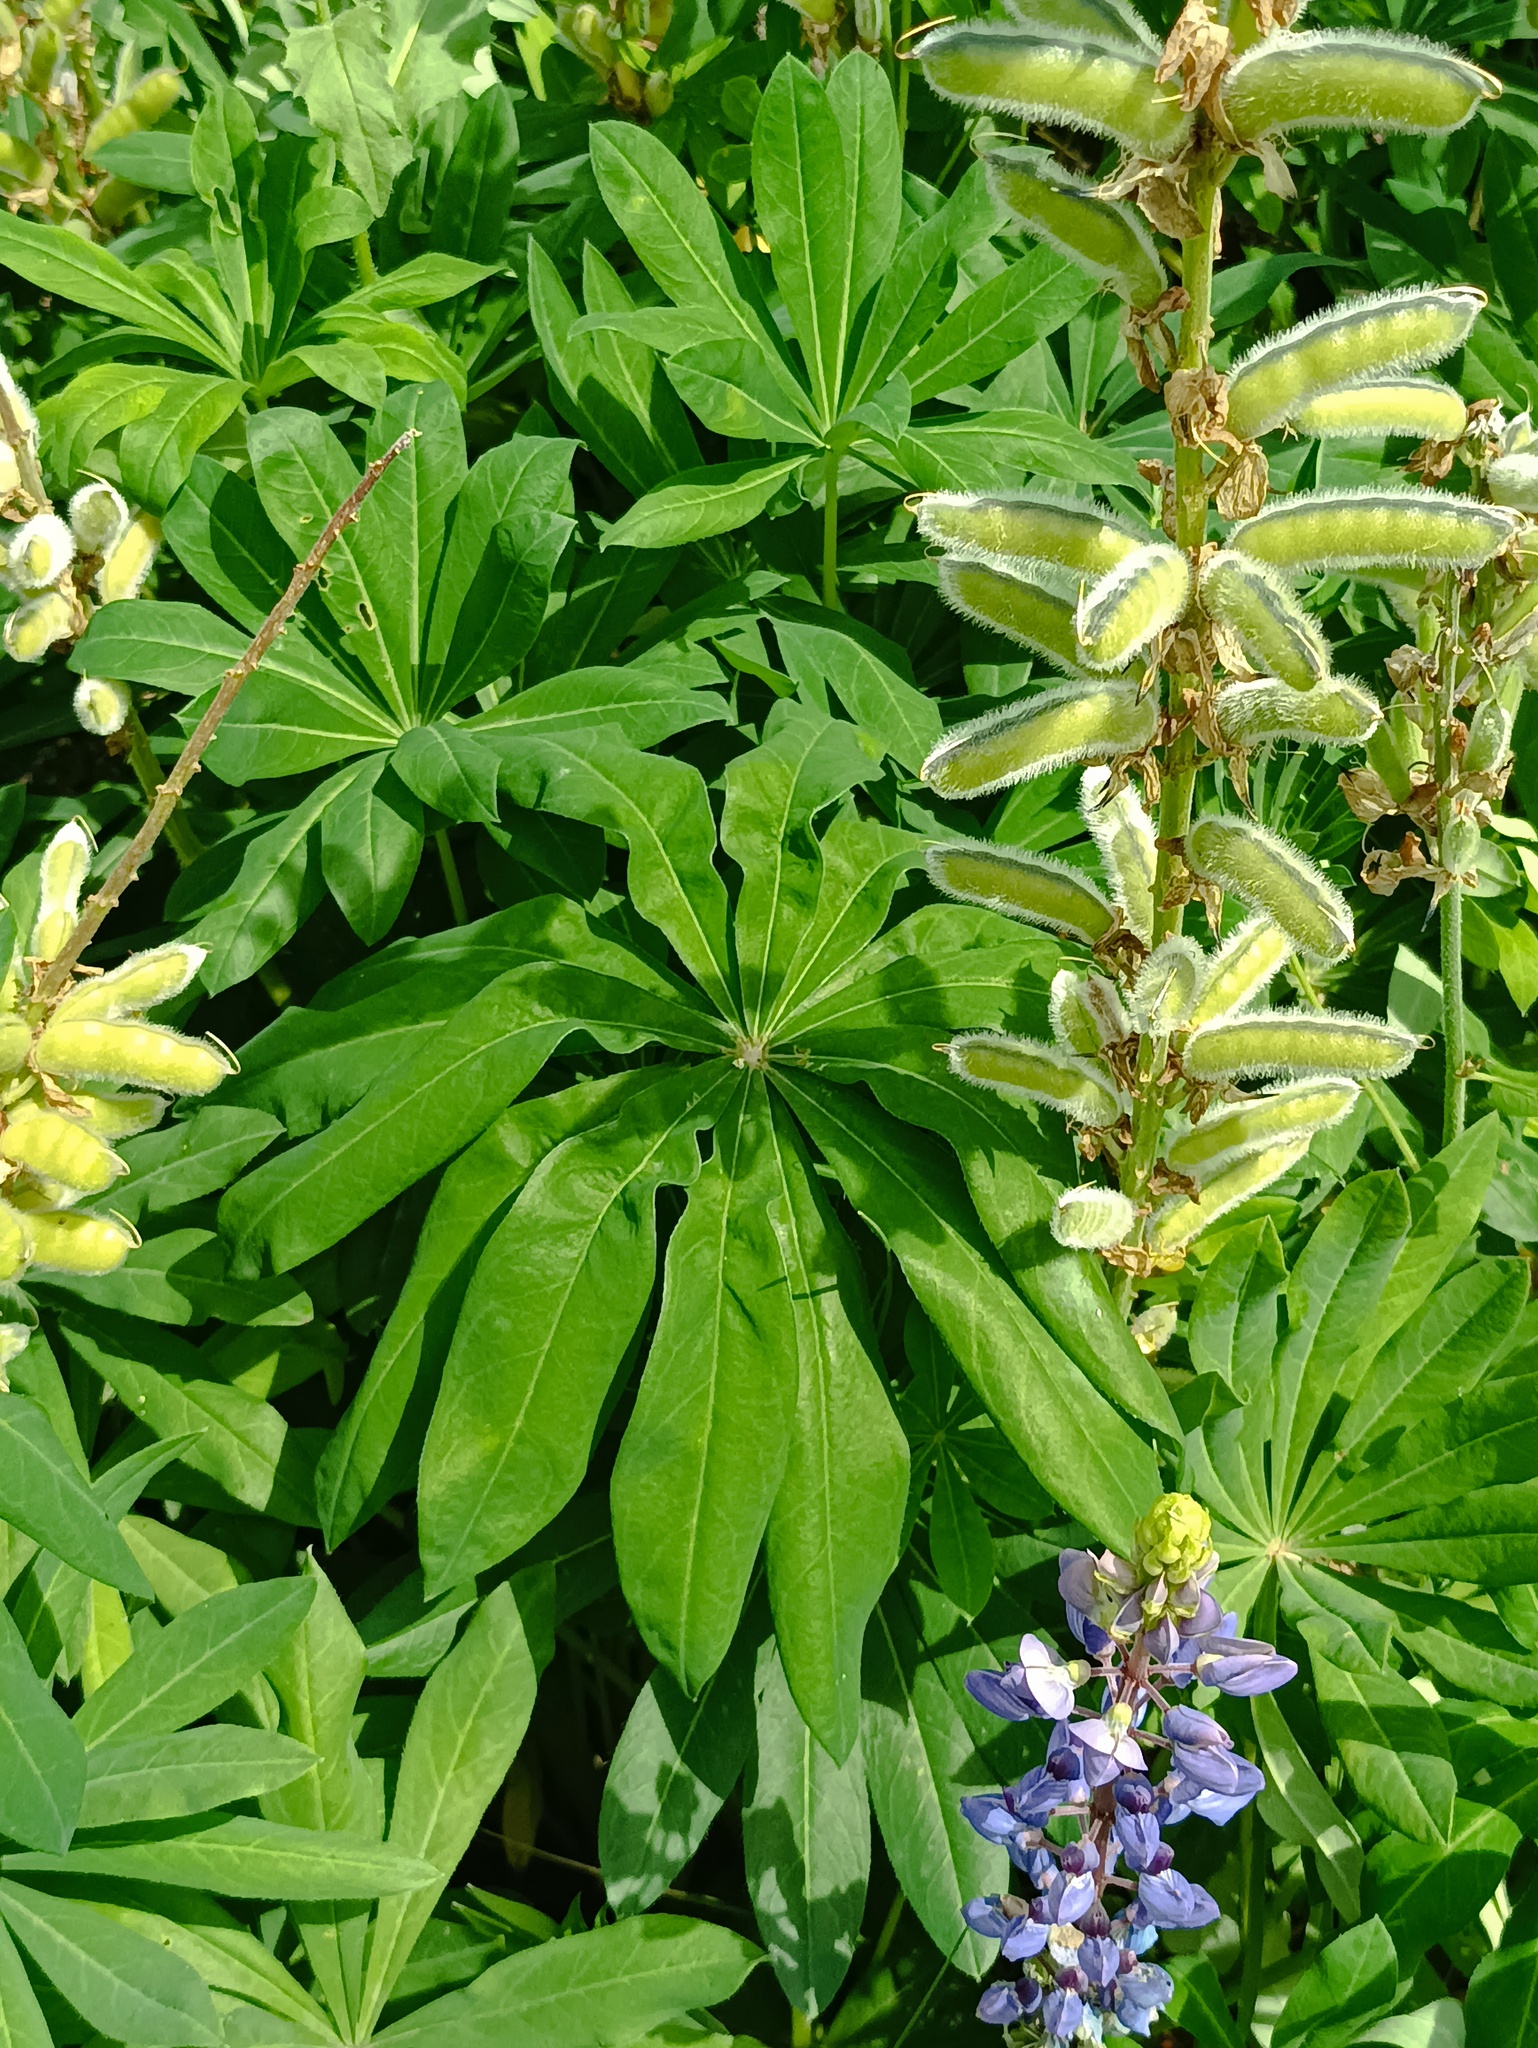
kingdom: Plantae
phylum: Tracheophyta
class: Magnoliopsida
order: Fabales
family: Fabaceae
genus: Lupinus
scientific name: Lupinus polyphyllus
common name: Garden lupin
